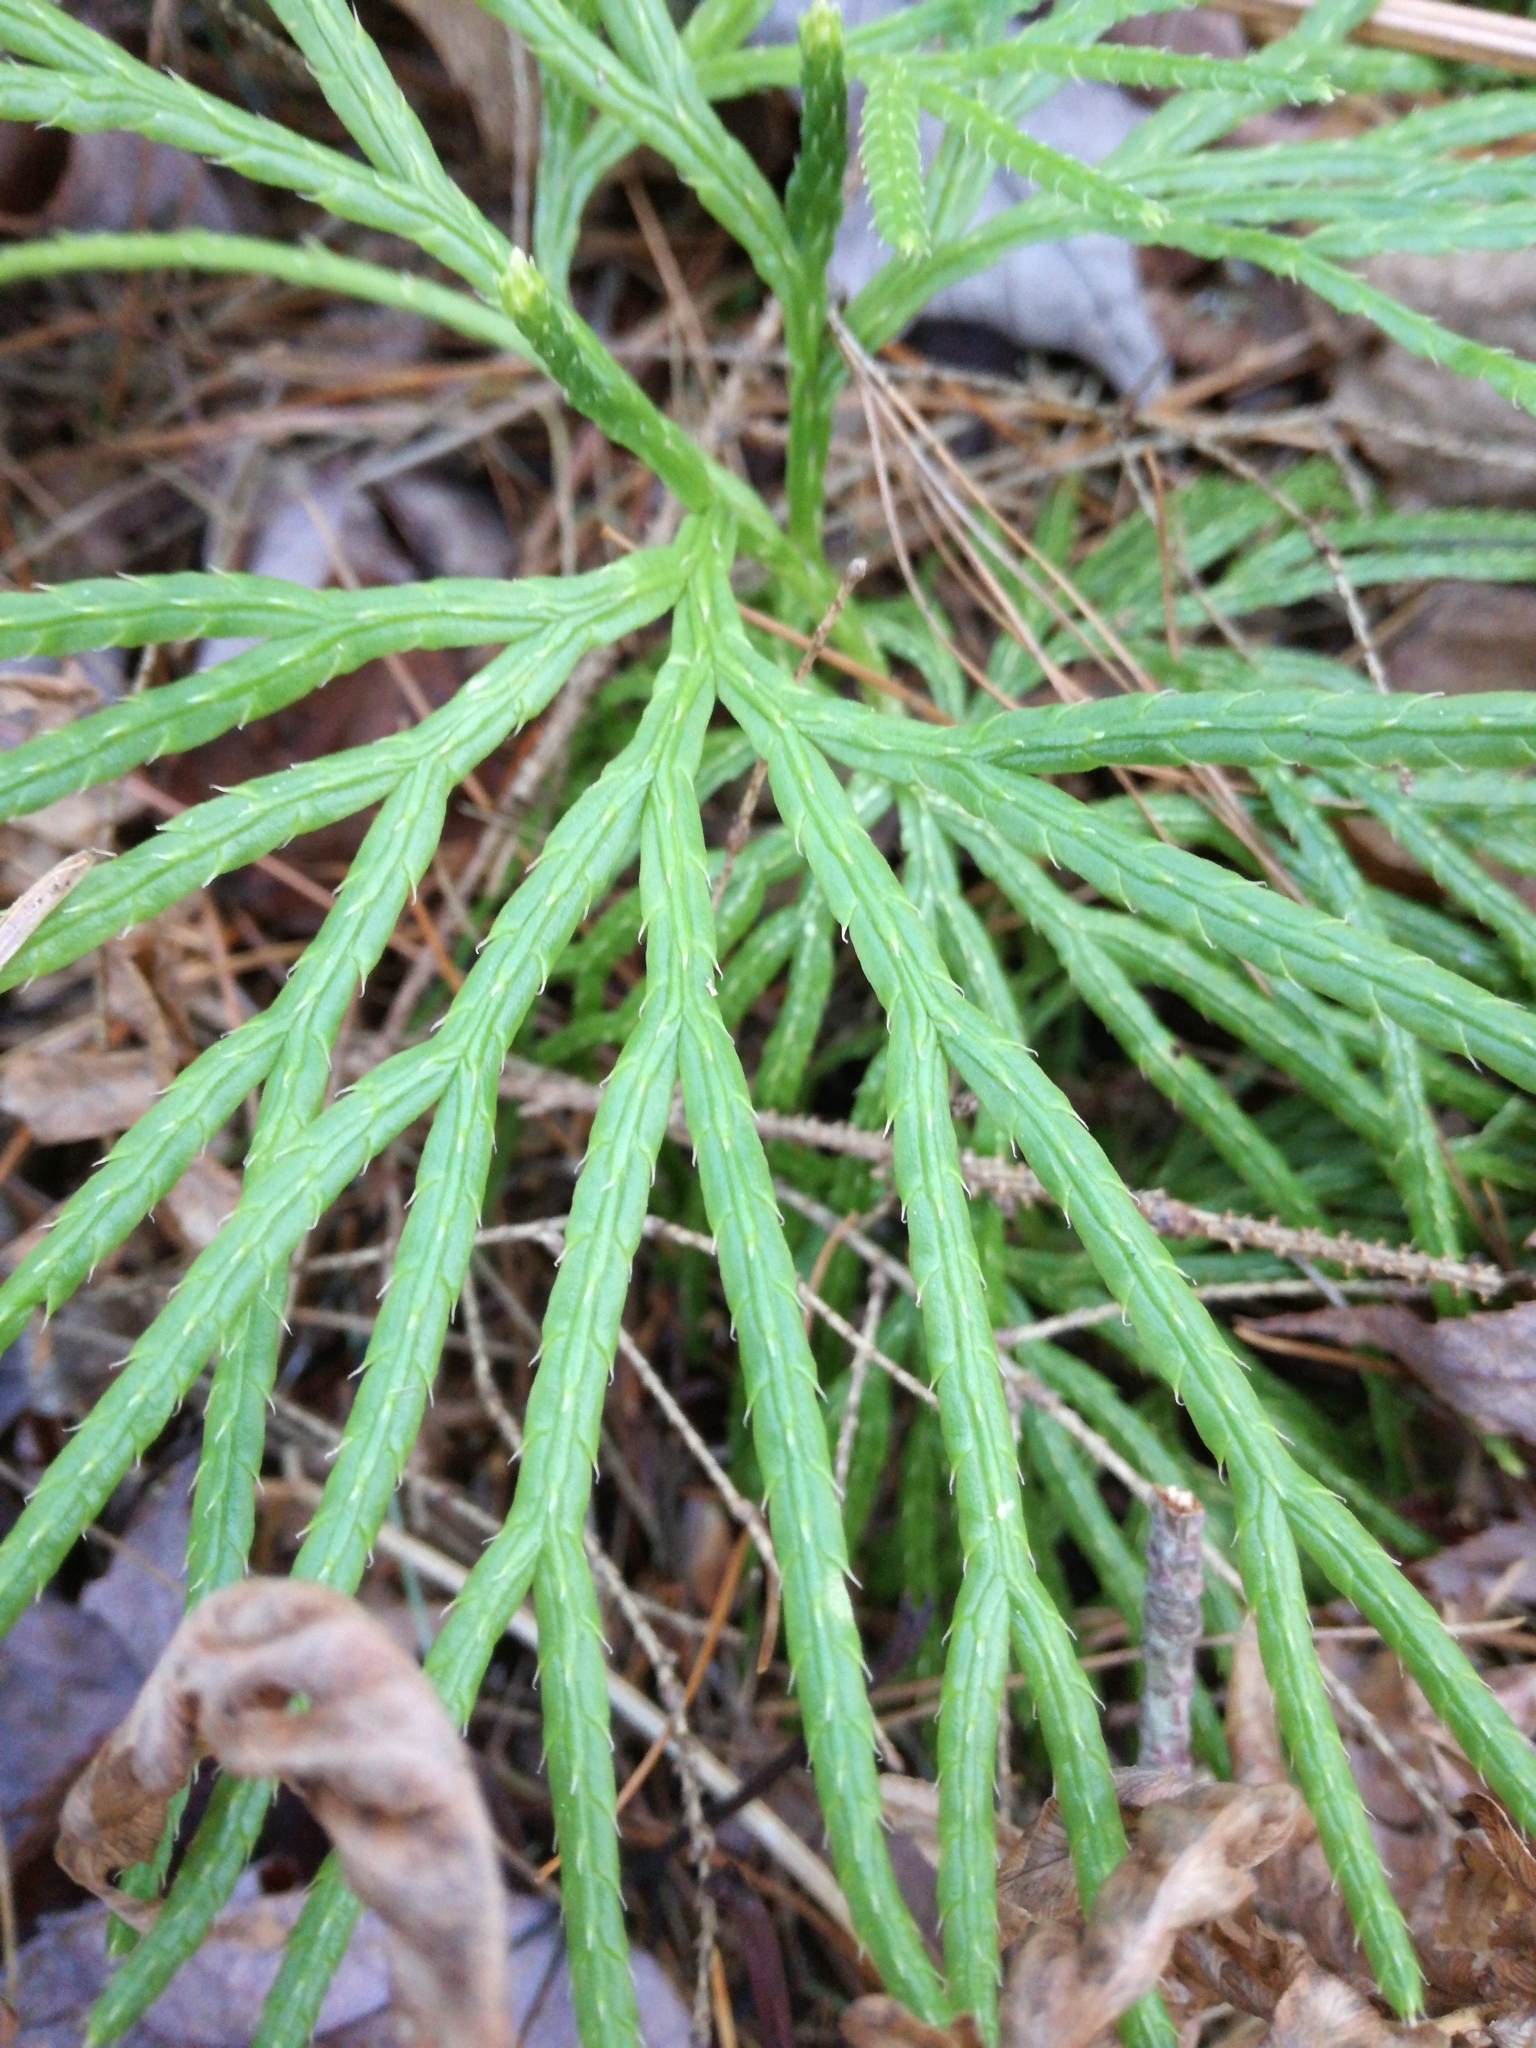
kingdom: Plantae
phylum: Tracheophyta
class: Lycopodiopsida
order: Lycopodiales
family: Lycopodiaceae
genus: Diphasiastrum
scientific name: Diphasiastrum digitatum
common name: Southern running-pine
